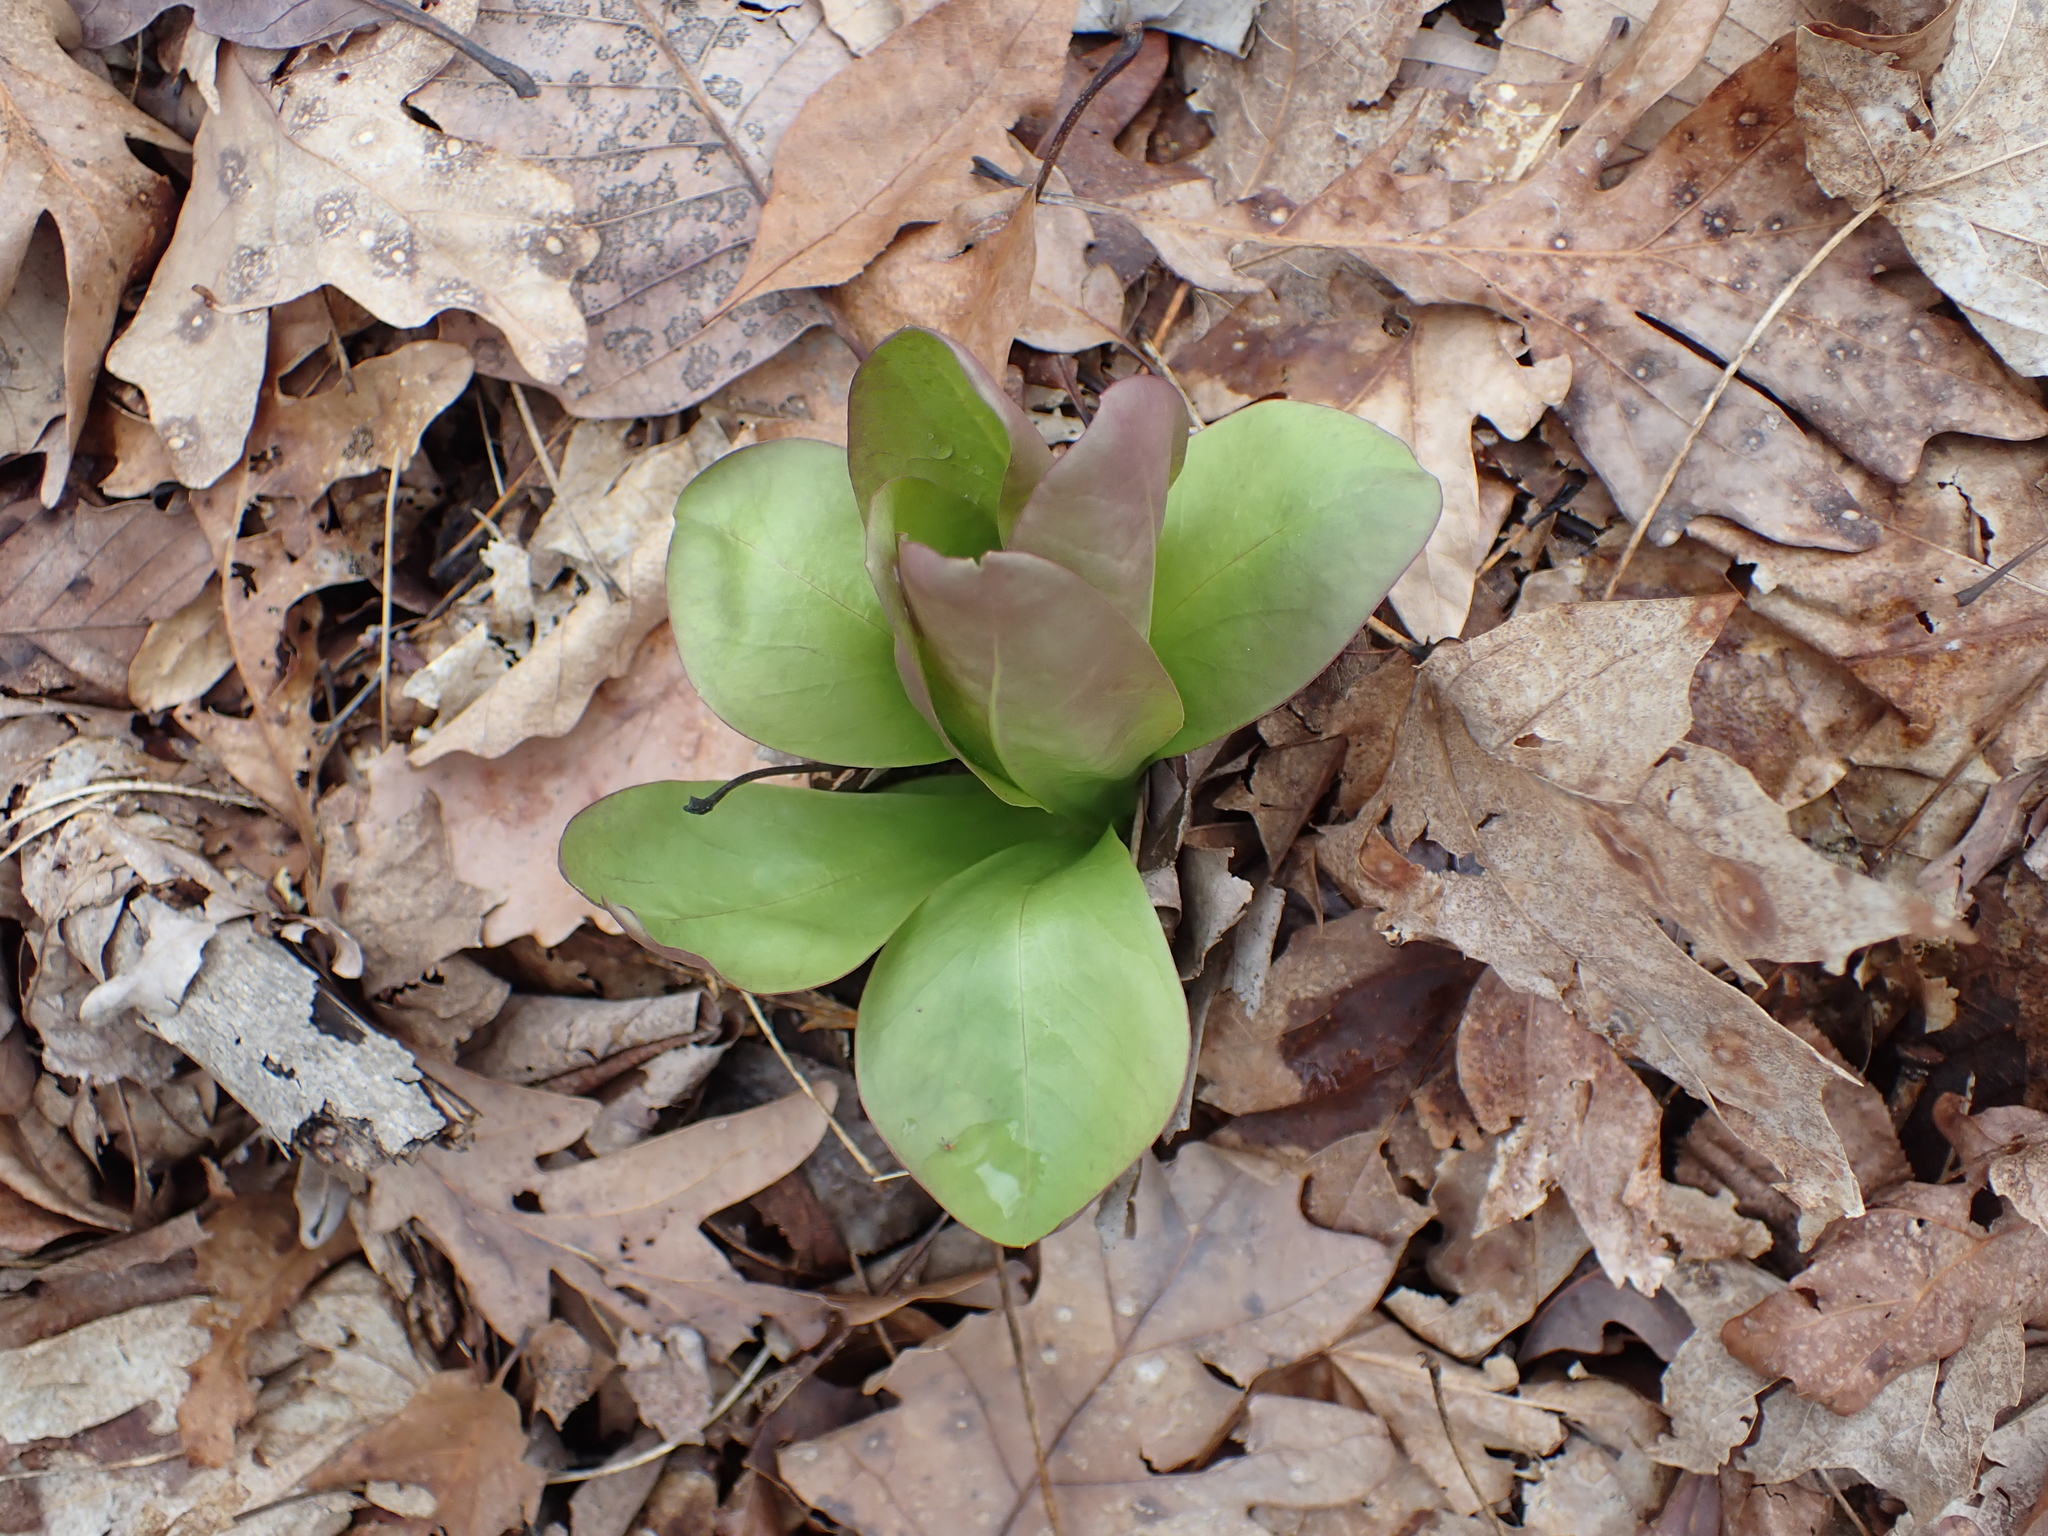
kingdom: Plantae
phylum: Tracheophyta
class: Magnoliopsida
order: Gentianales
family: Gentianaceae
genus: Frasera
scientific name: Frasera caroliniensis
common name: American columbo
